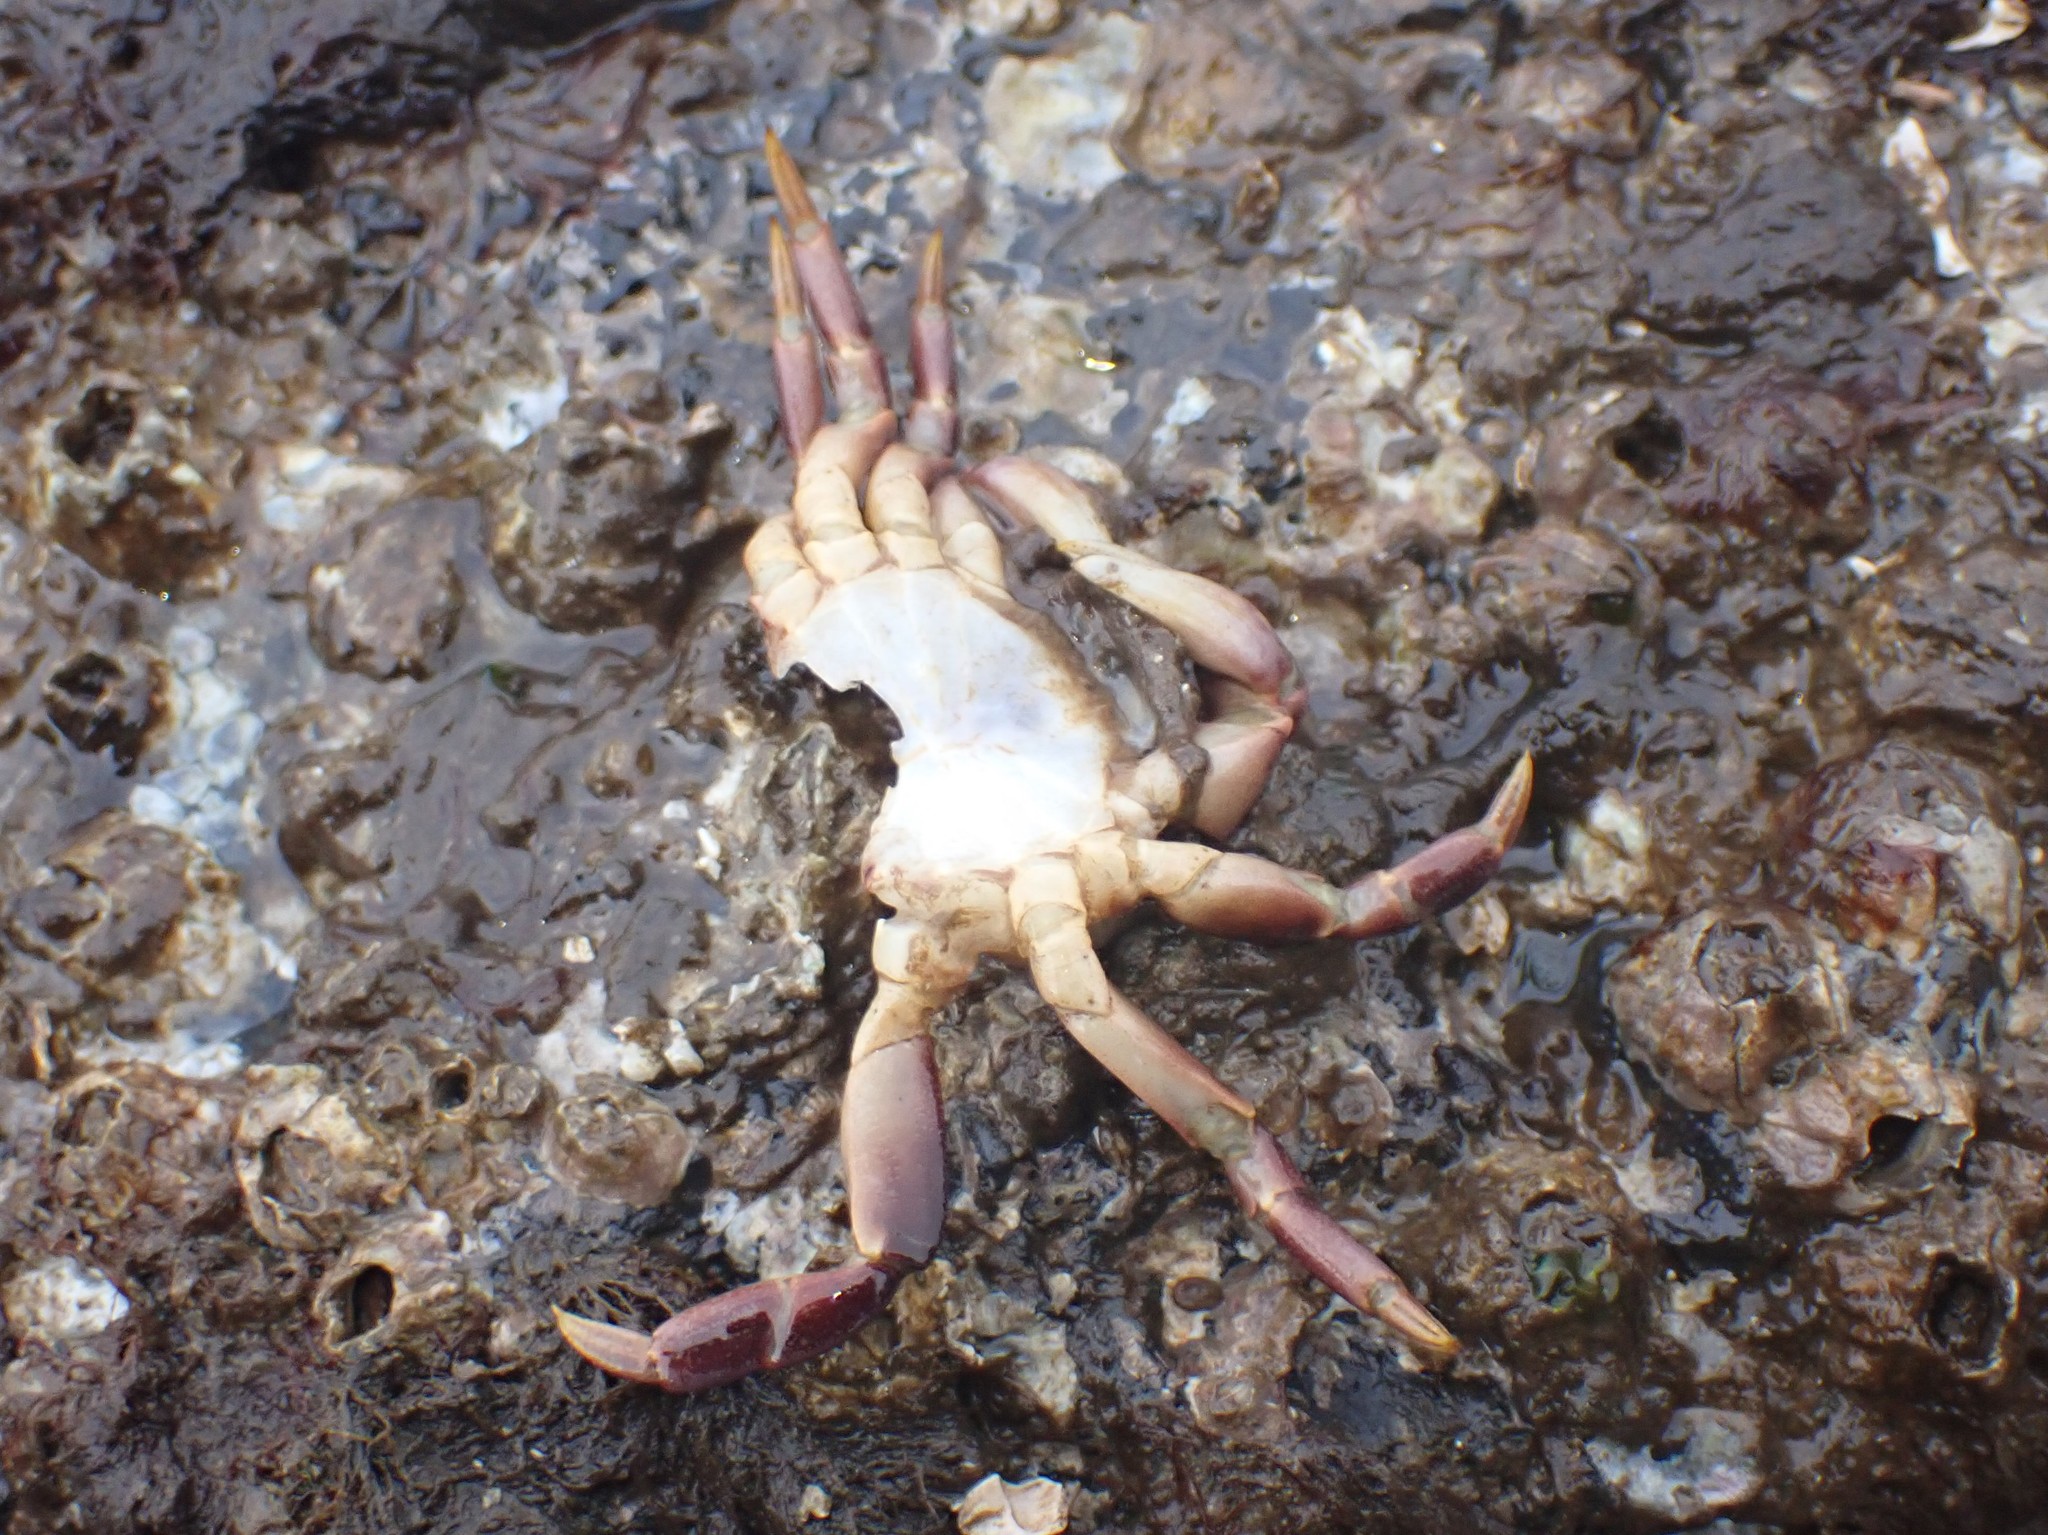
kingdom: Animalia
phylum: Arthropoda
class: Malacostraca
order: Decapoda
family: Varunidae
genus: Hemigrapsus
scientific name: Hemigrapsus nudus
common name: Purple shore crab
